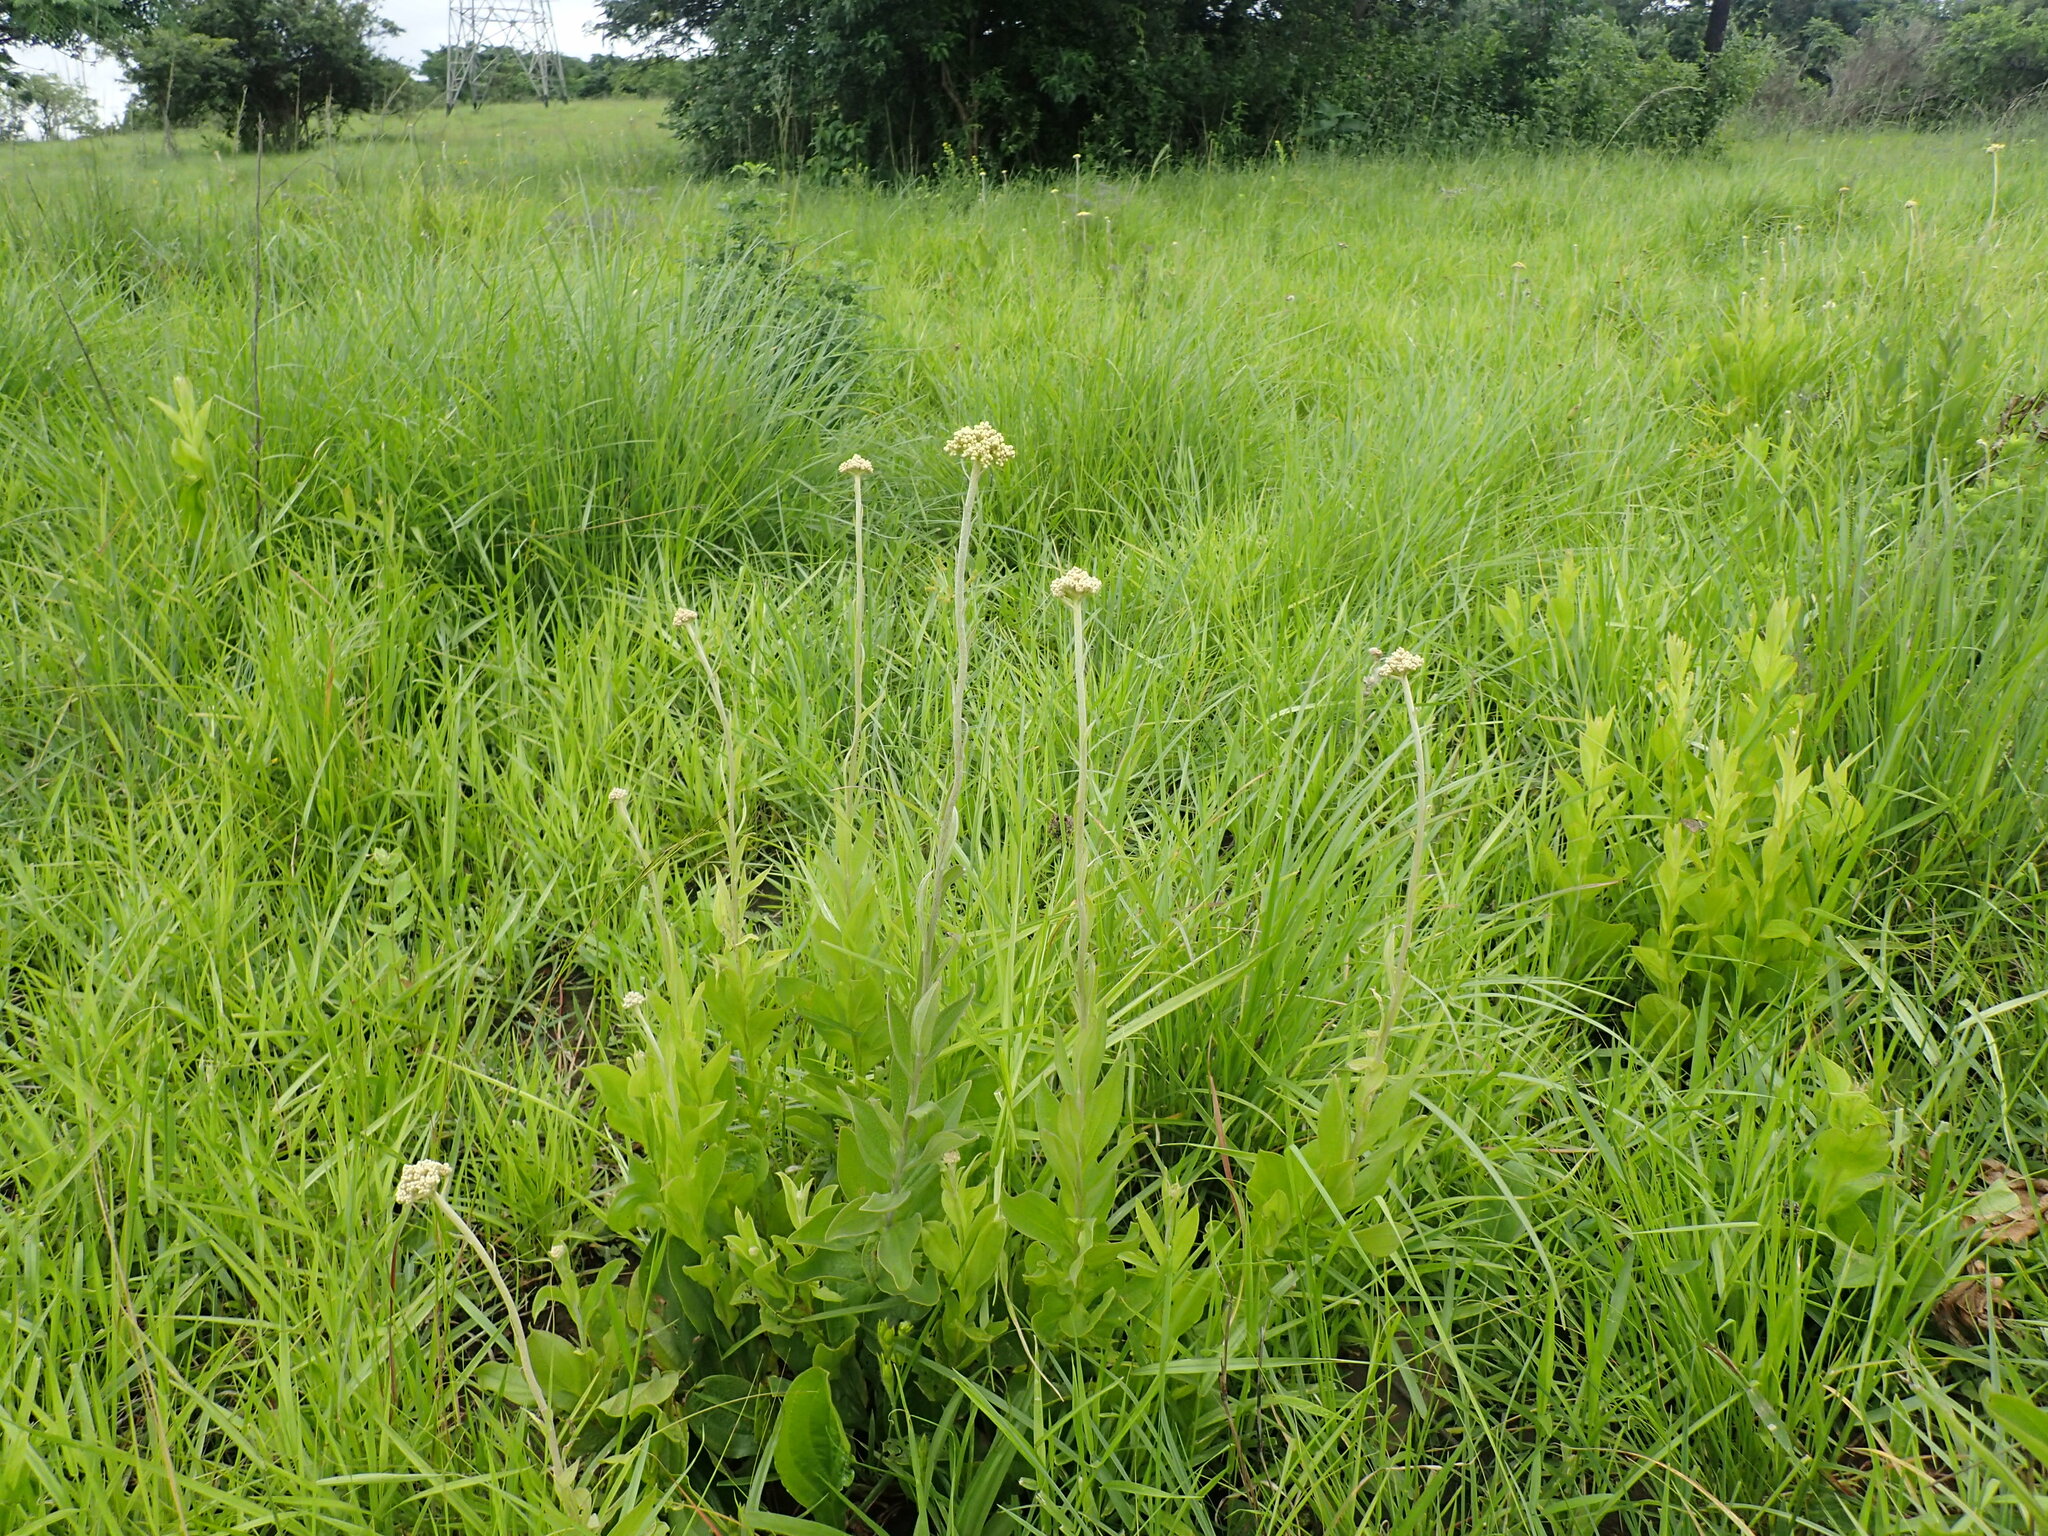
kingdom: Plantae
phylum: Tracheophyta
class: Magnoliopsida
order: Asterales
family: Asteraceae
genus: Helichrysum
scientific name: Helichrysum nudifolium
